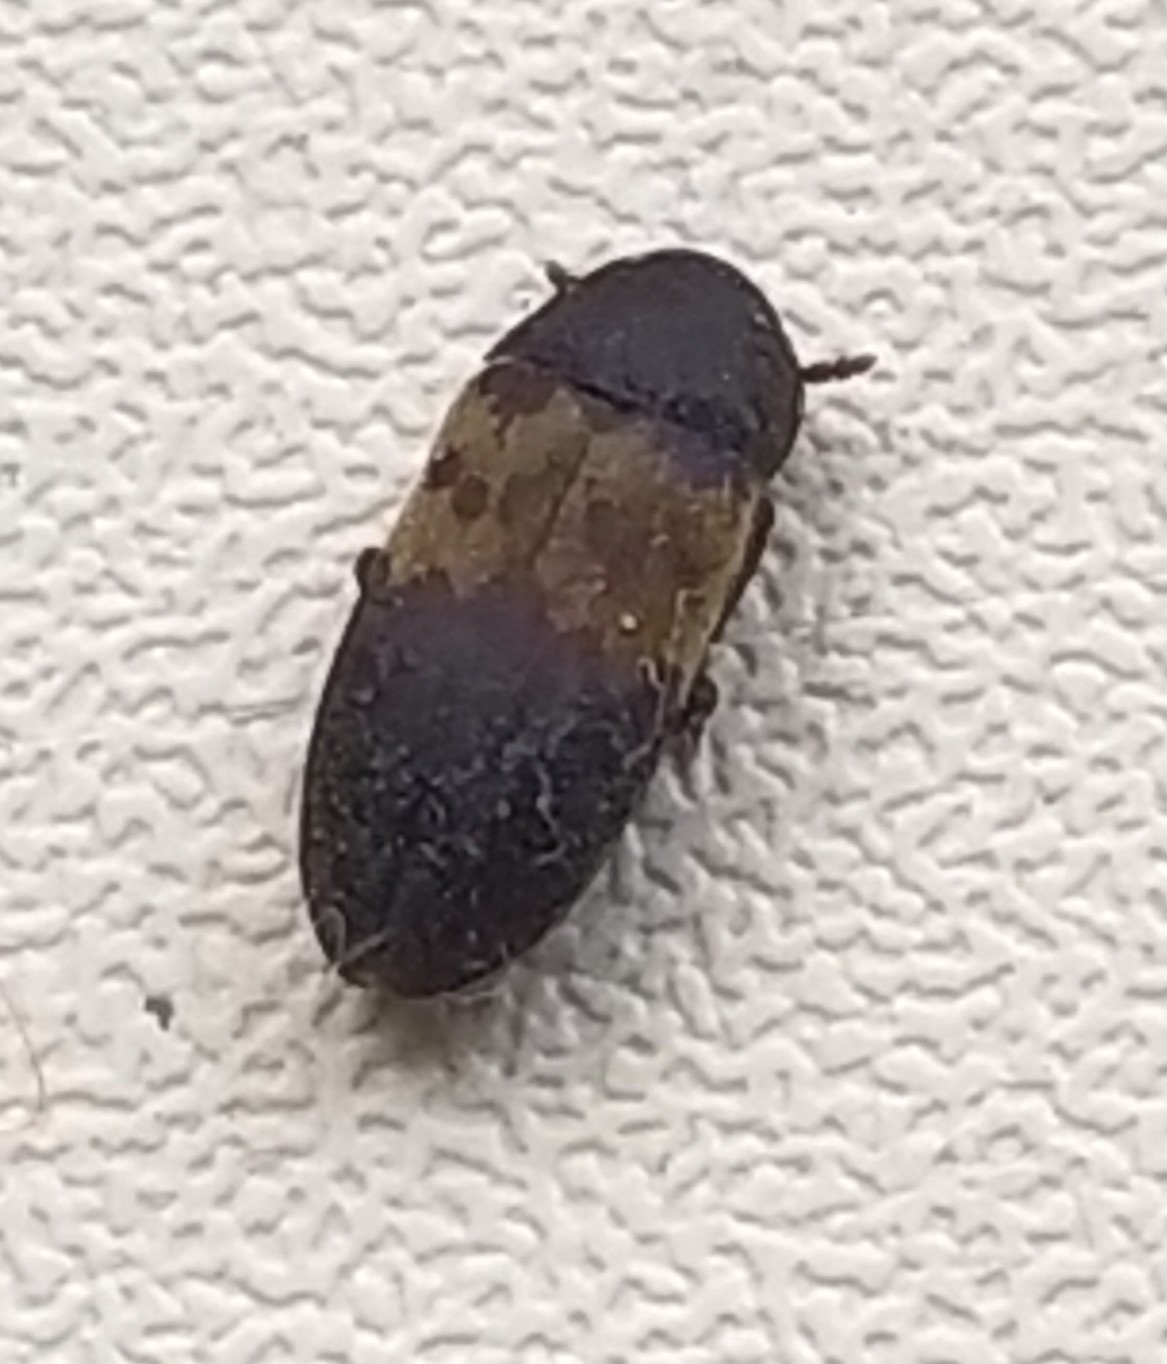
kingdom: Animalia
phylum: Arthropoda
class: Insecta
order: Coleoptera
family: Dermestidae
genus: Dermestes
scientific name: Dermestes lardarius
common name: Larder beetle
